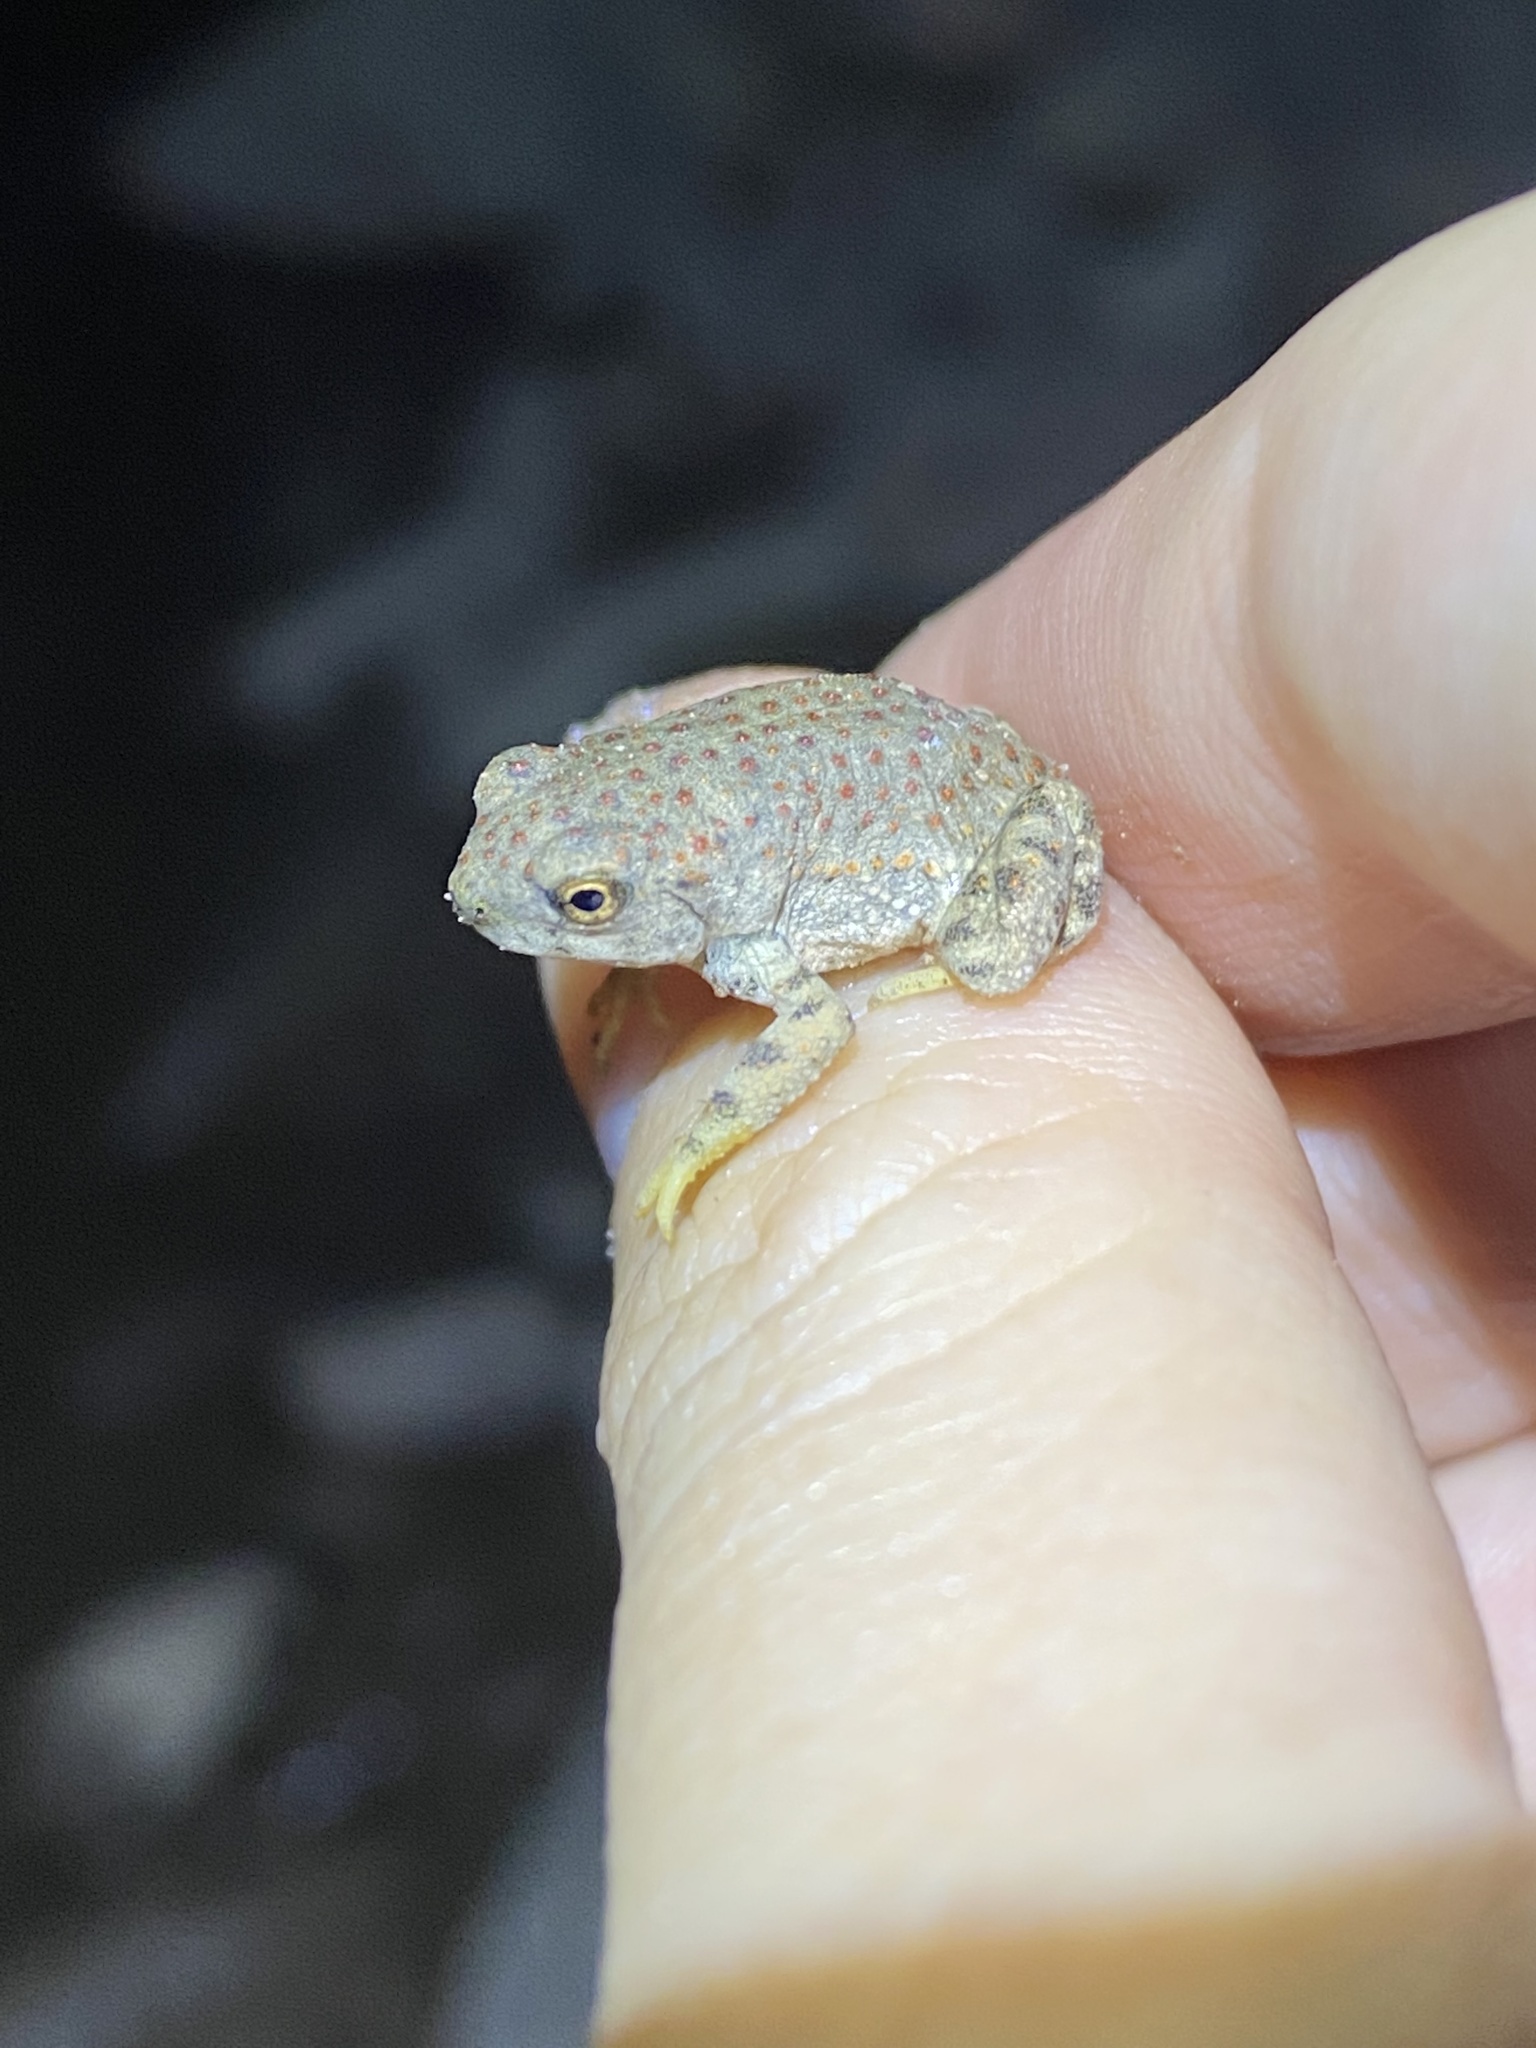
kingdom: Animalia
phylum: Chordata
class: Amphibia
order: Anura
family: Bufonidae
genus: Anaxyrus
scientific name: Anaxyrus punctatus
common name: Red-spotted toad
